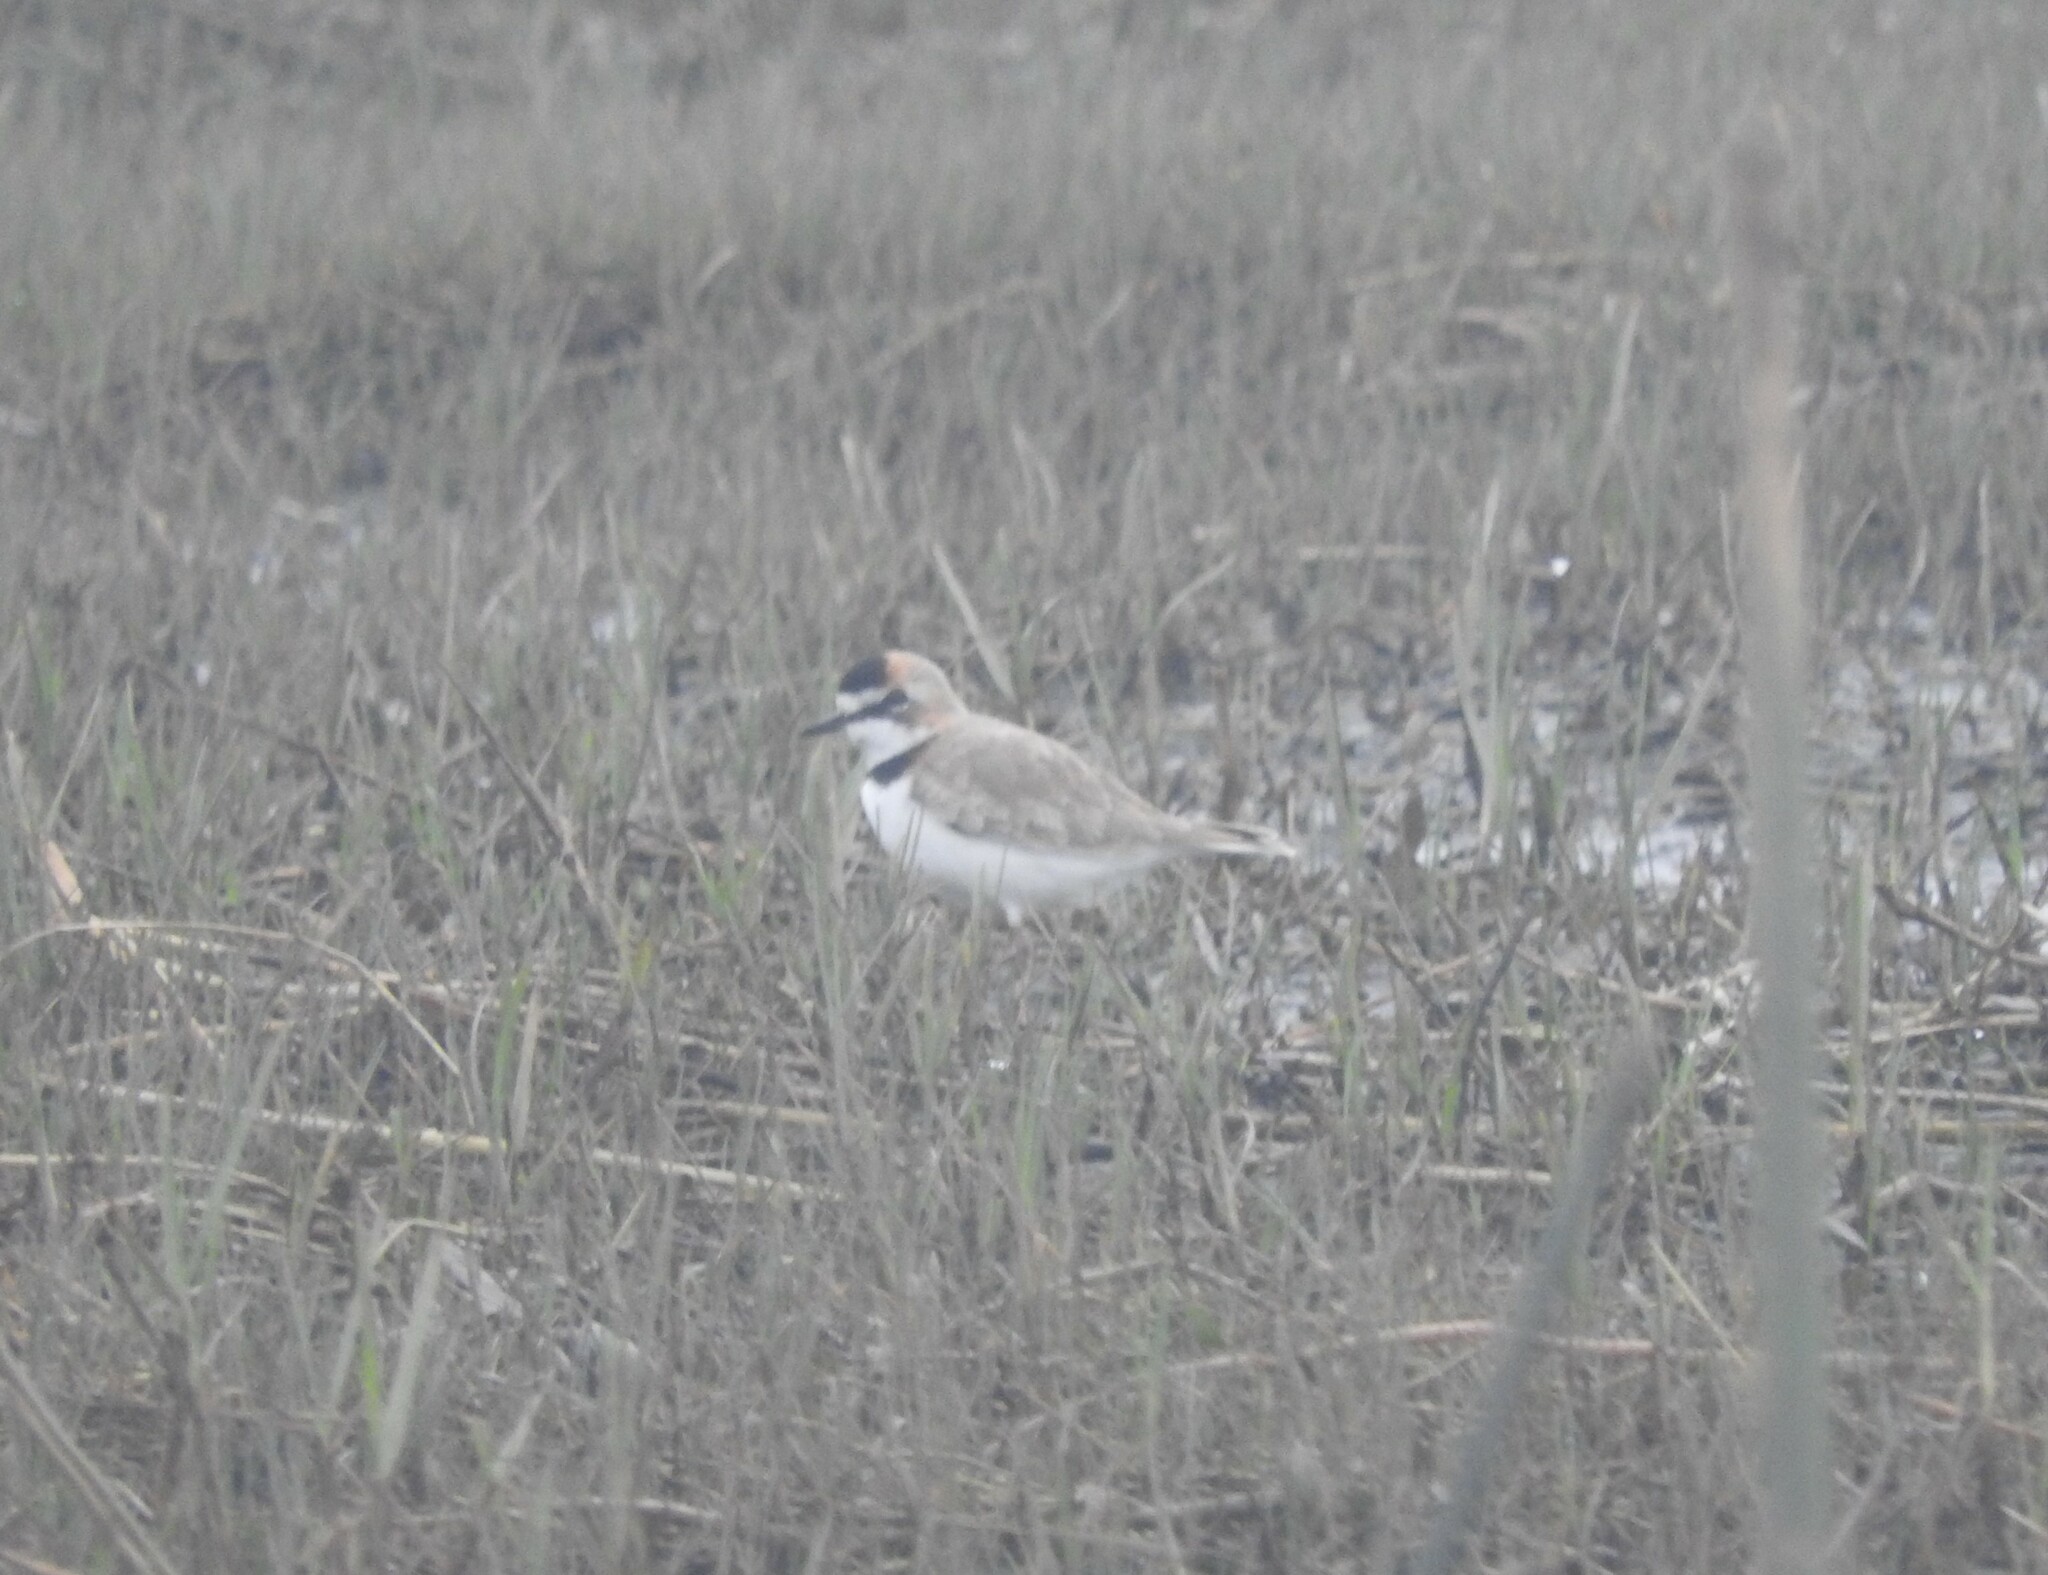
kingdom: Animalia
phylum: Chordata
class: Aves
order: Charadriiformes
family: Charadriidae
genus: Anarhynchus
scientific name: Anarhynchus
